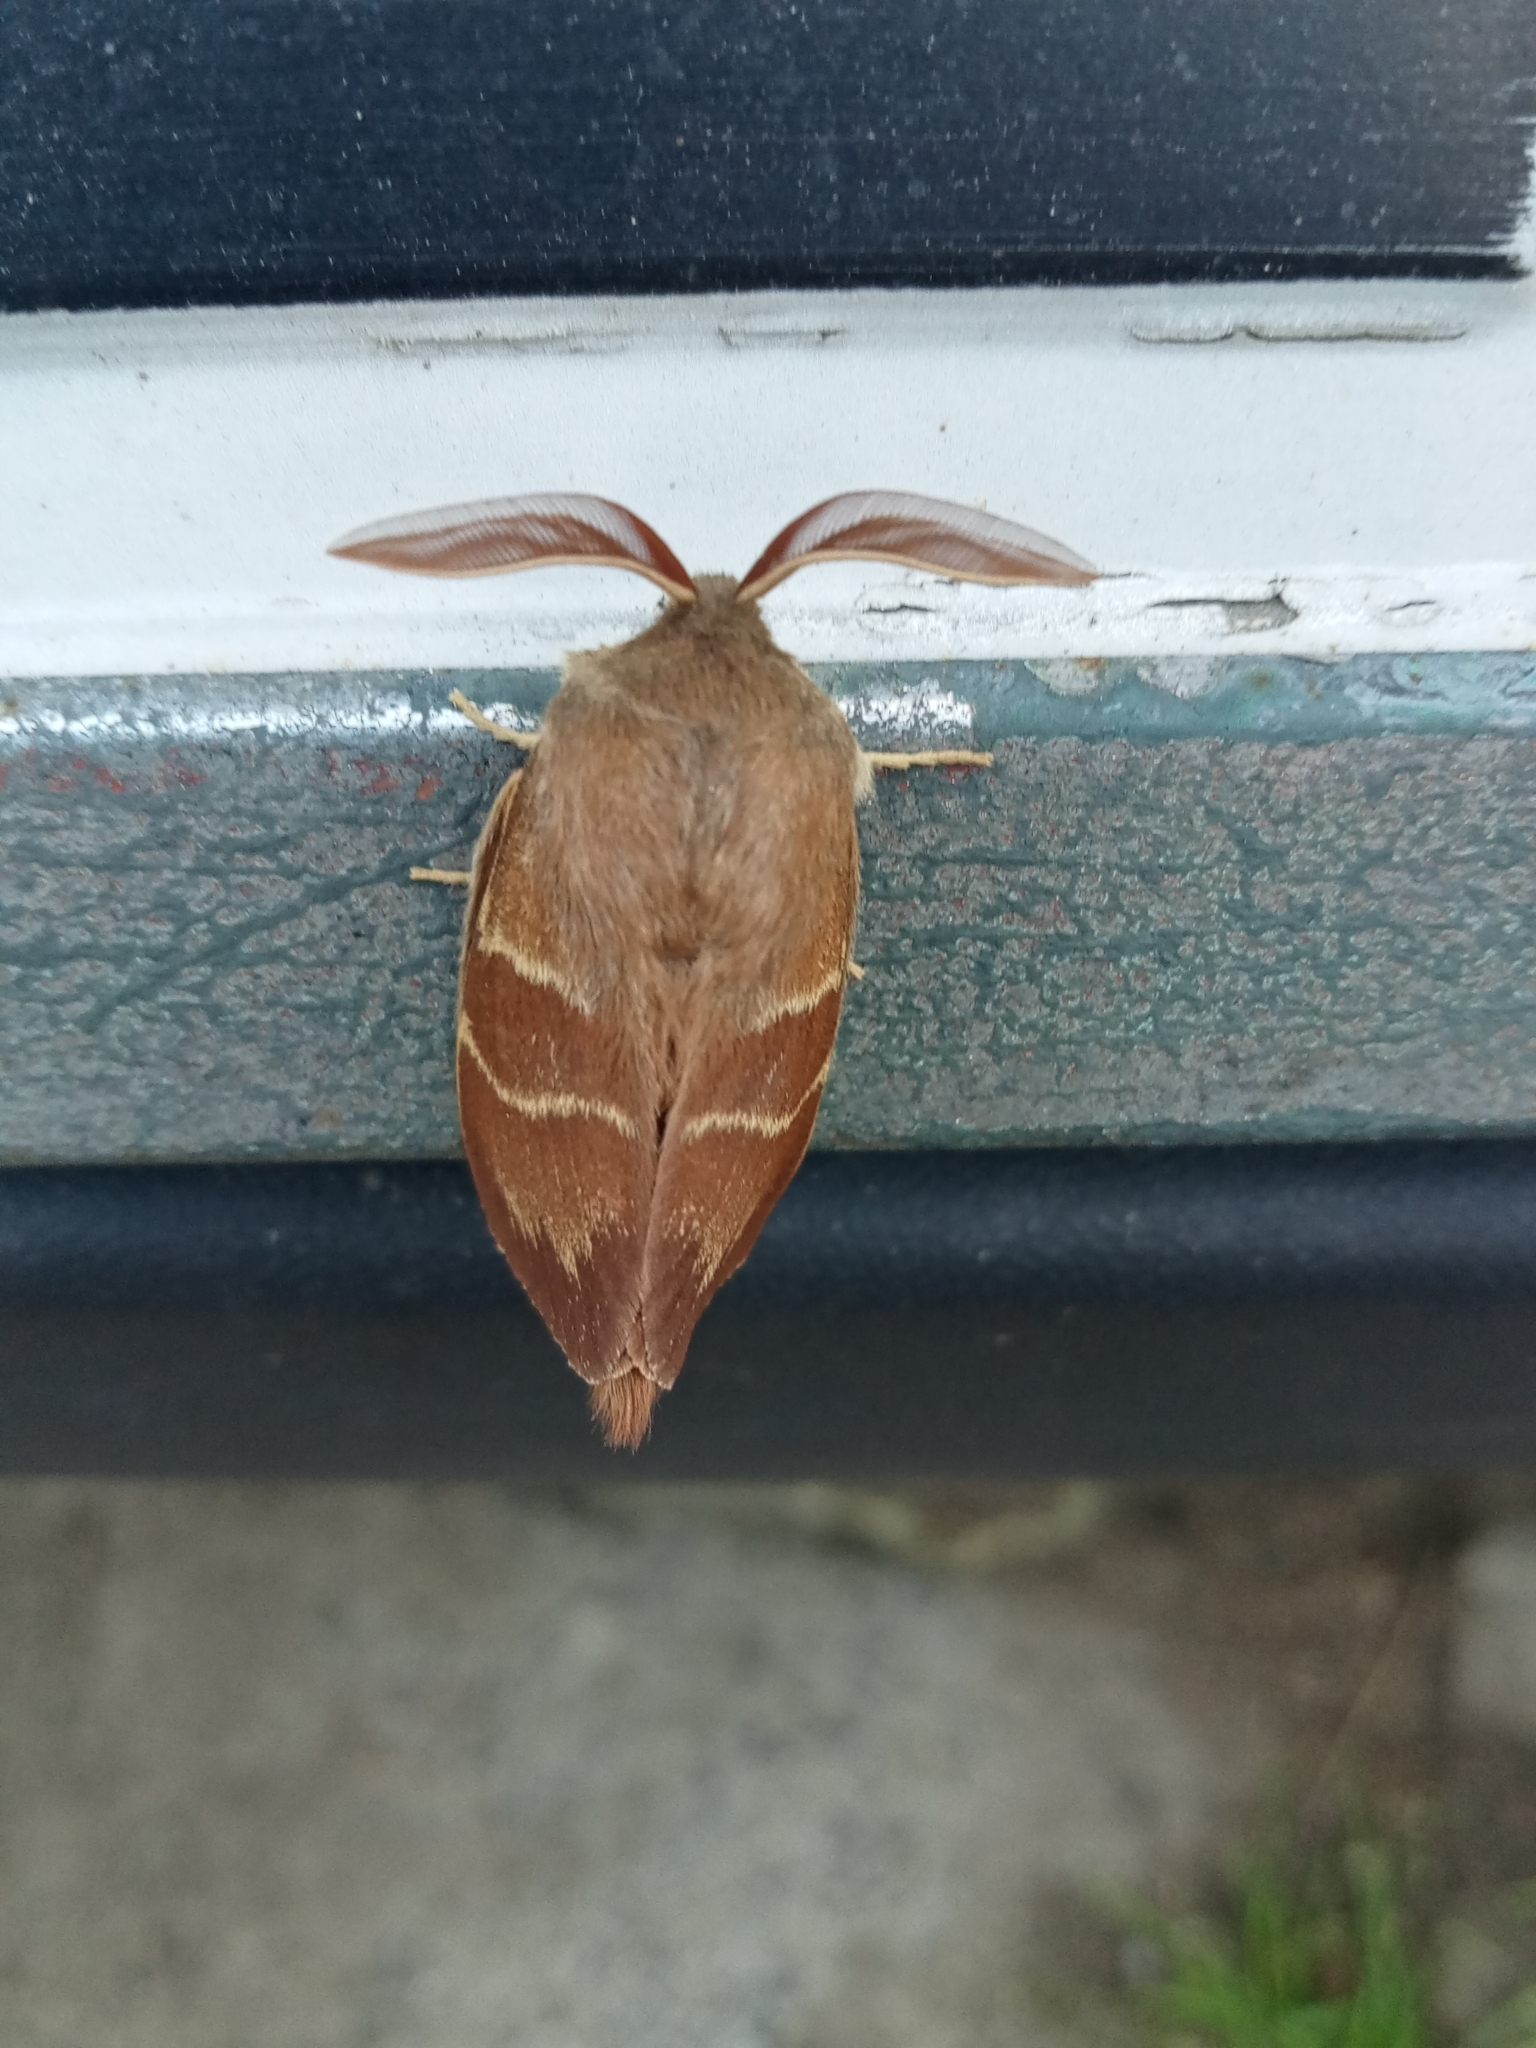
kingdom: Animalia
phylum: Arthropoda
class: Insecta
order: Lepidoptera
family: Lasiocampidae
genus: Macrothylacia
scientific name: Macrothylacia rubi
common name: Fox moth
